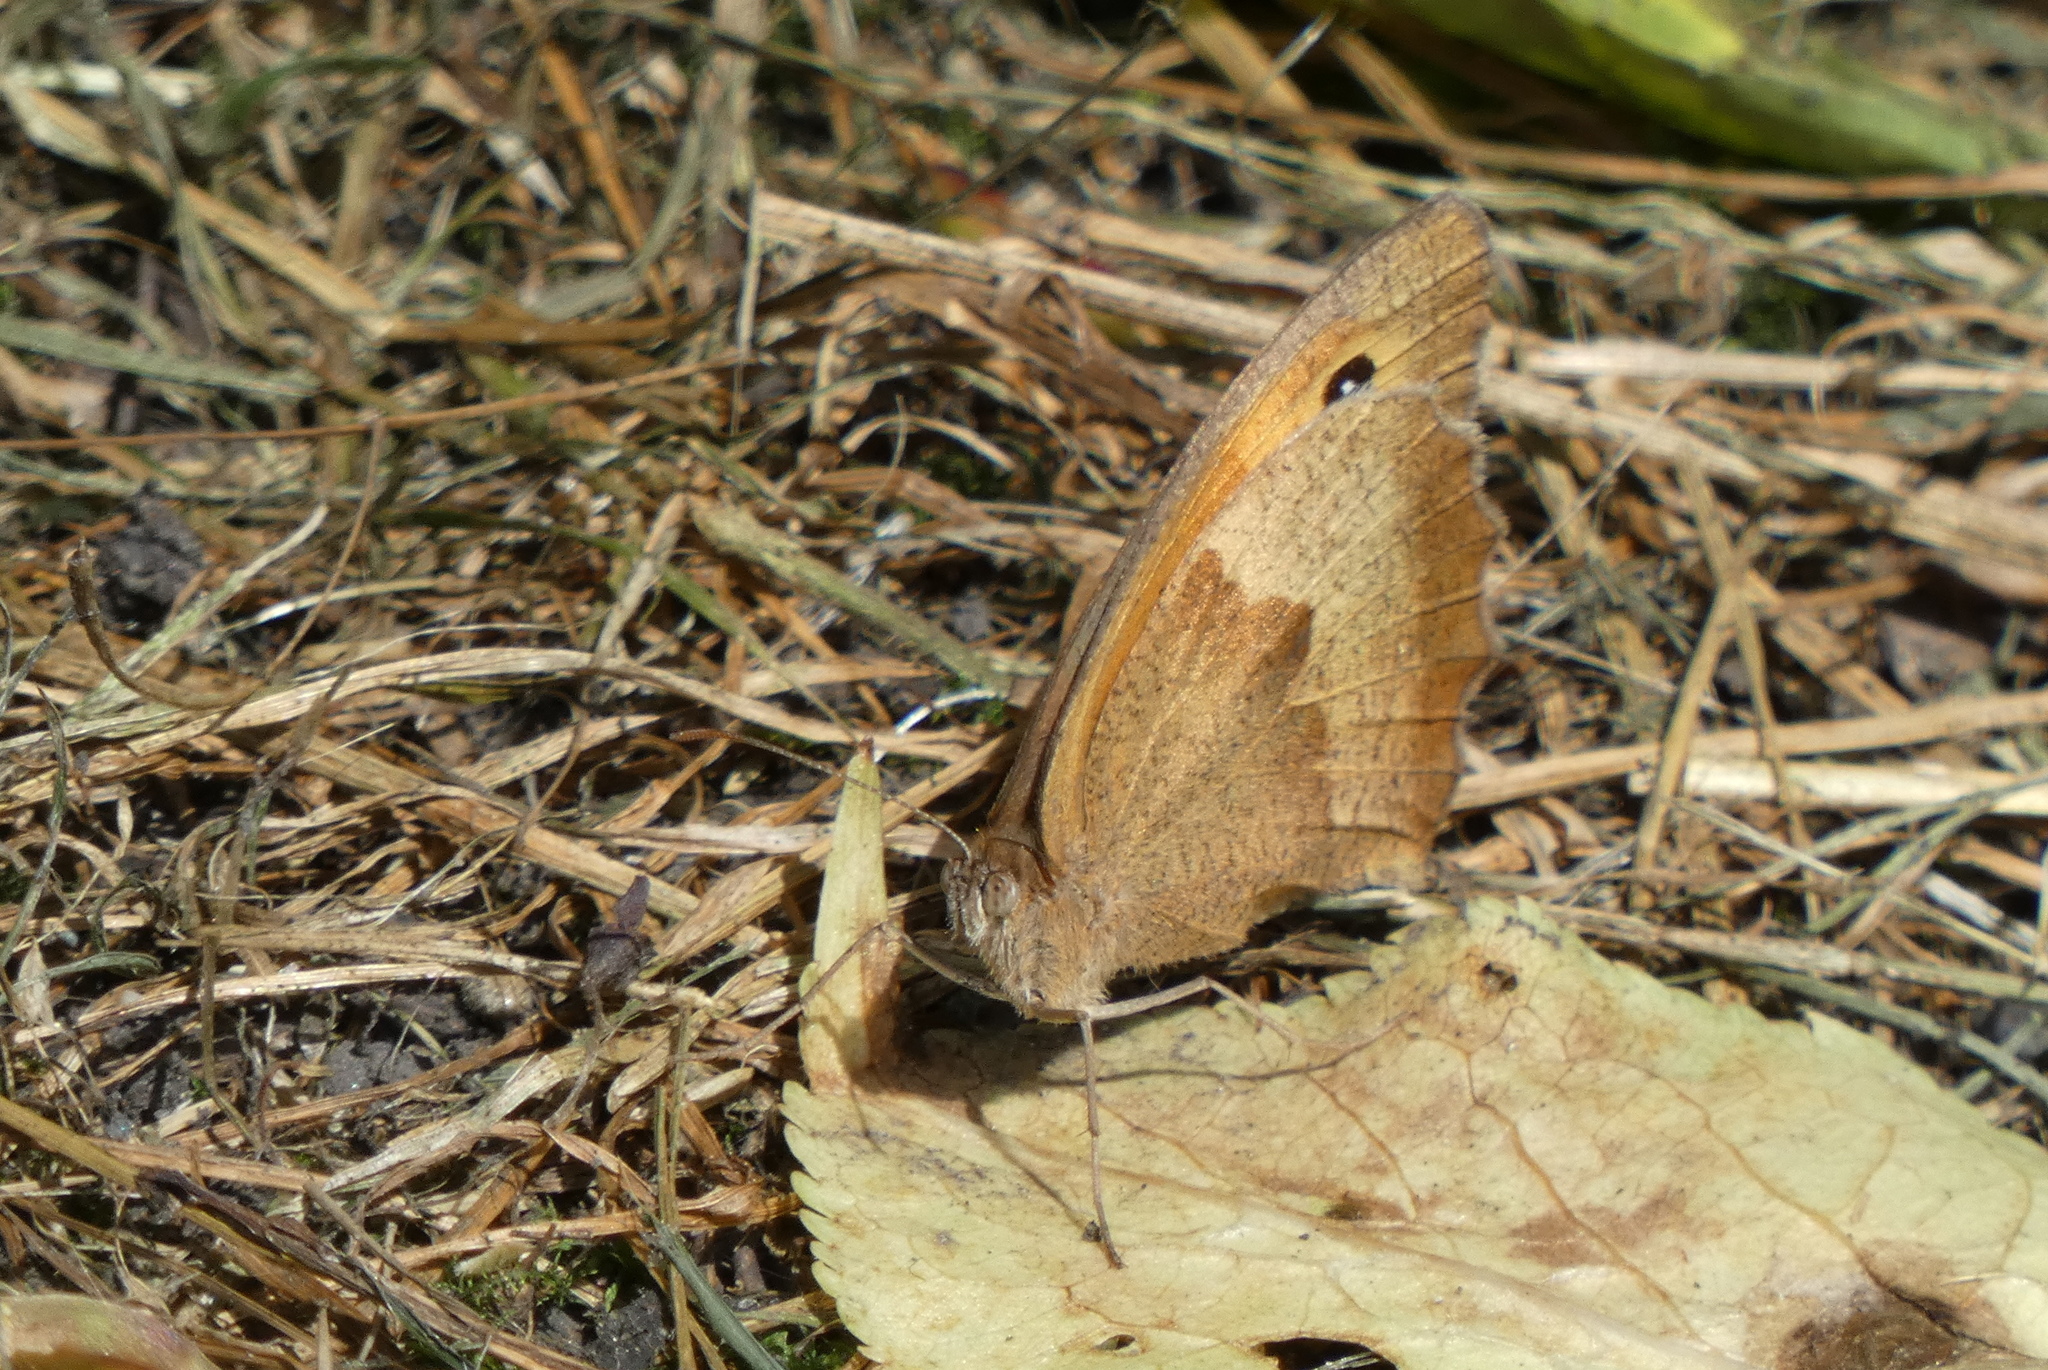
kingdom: Animalia
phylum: Arthropoda
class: Insecta
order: Lepidoptera
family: Nymphalidae
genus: Maniola
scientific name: Maniola jurtina
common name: Meadow brown
